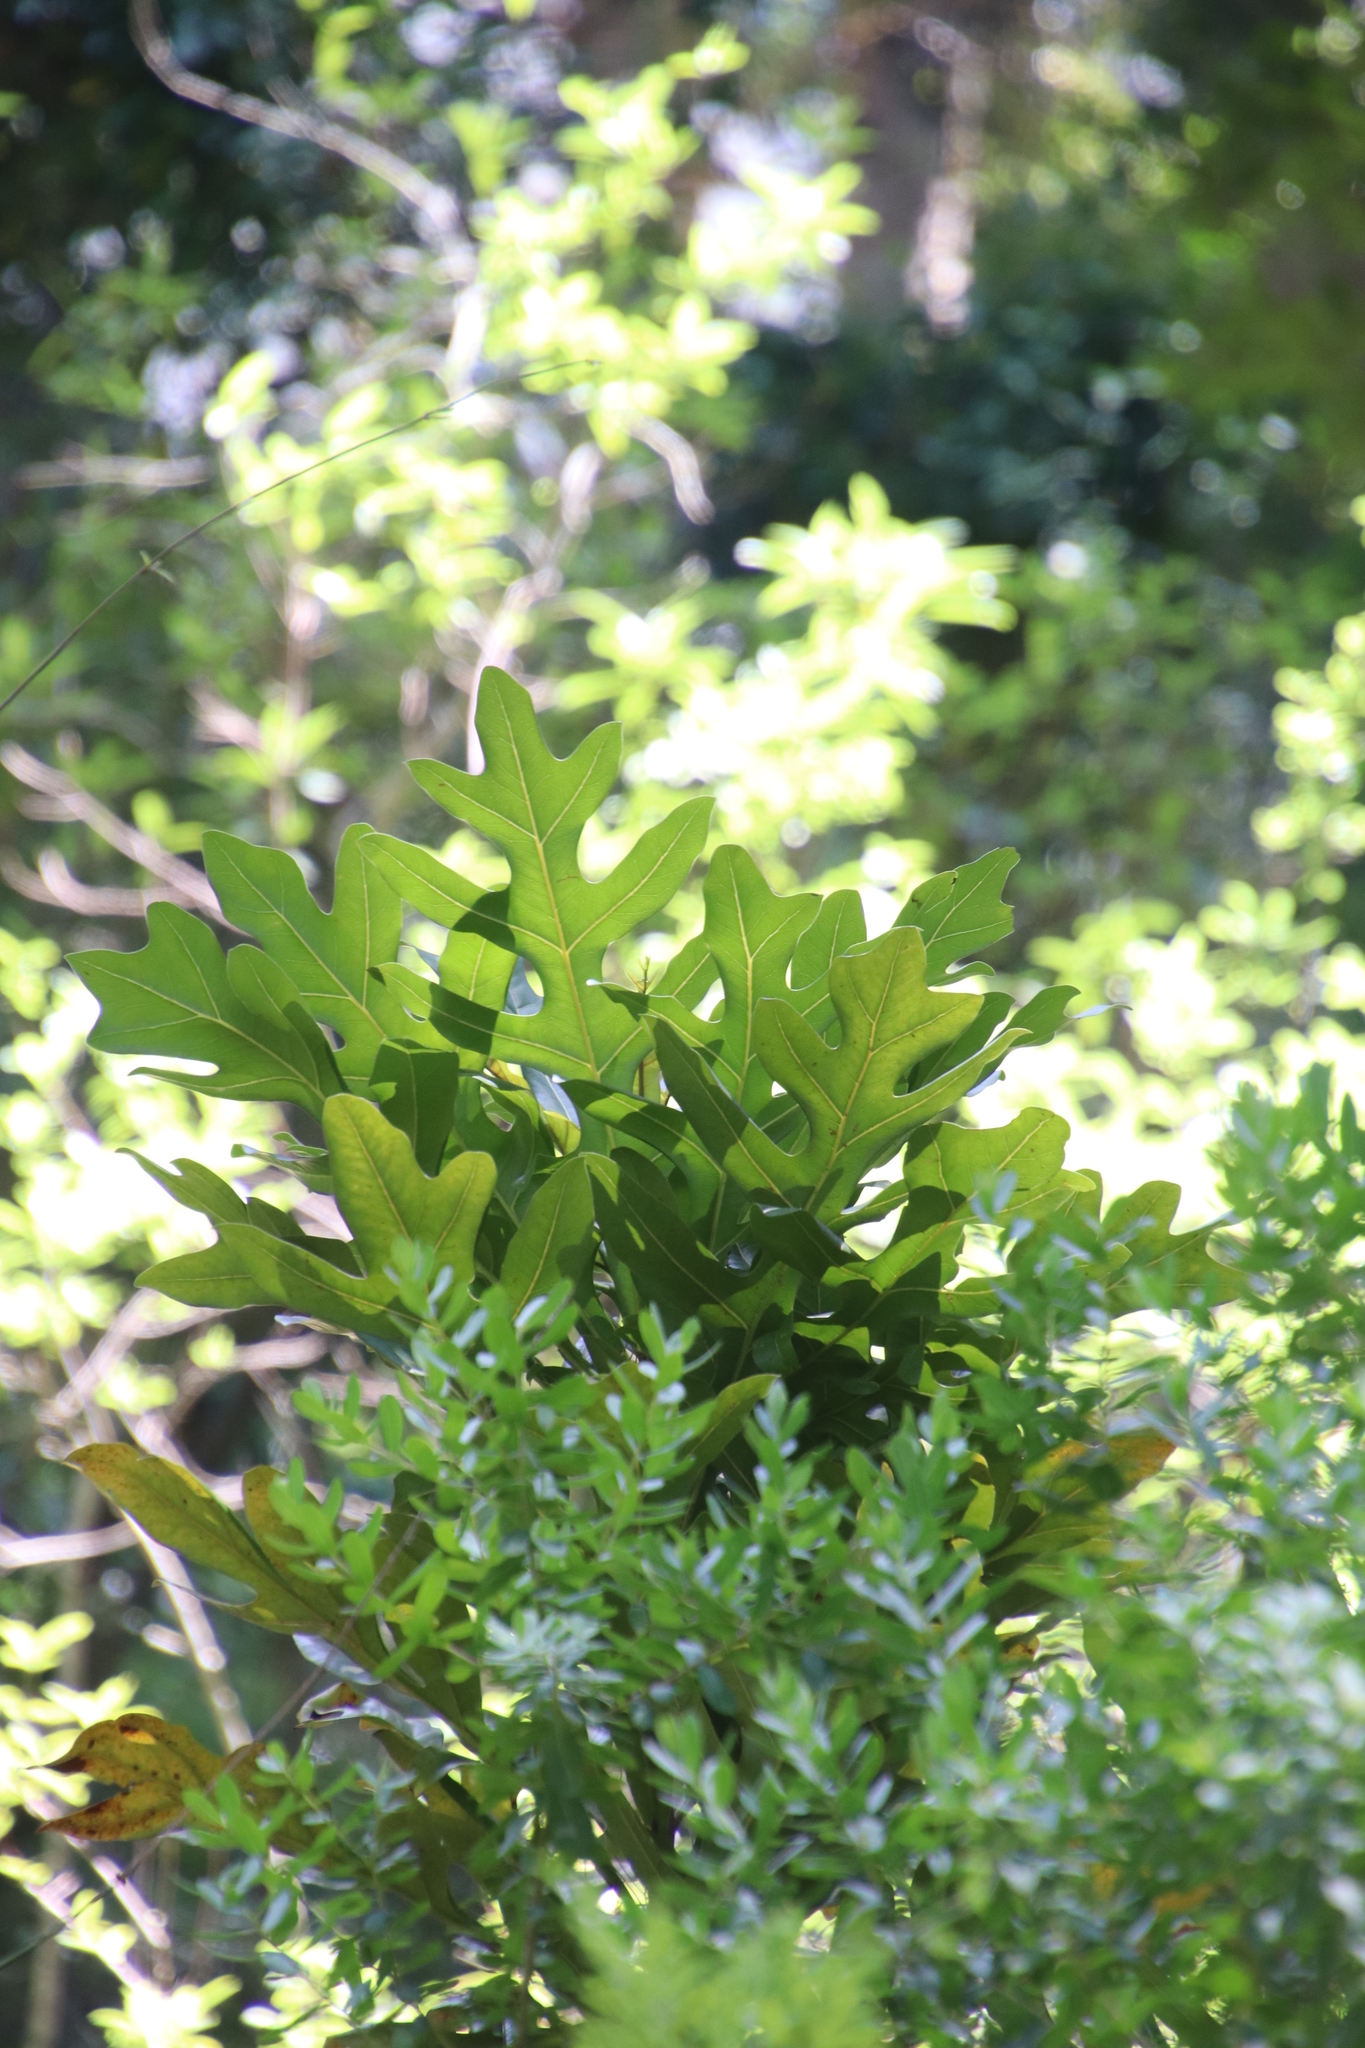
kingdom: Plantae
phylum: Tracheophyta
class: Magnoliopsida
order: Proteales
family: Proteaceae
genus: Stenocarpus
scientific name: Stenocarpus sinuatus
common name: Queensland fire-wheel-tree
